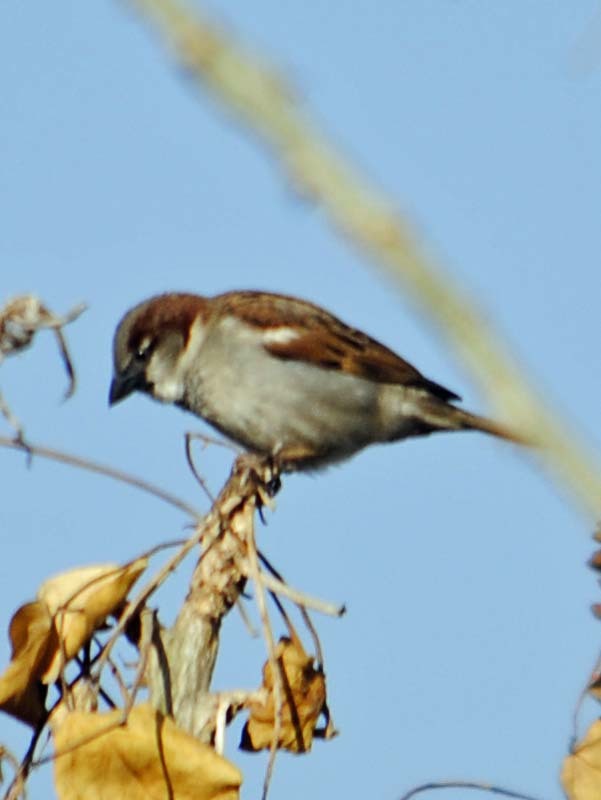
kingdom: Animalia
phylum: Chordata
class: Aves
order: Passeriformes
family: Passeridae
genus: Passer
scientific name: Passer domesticus
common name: House sparrow
